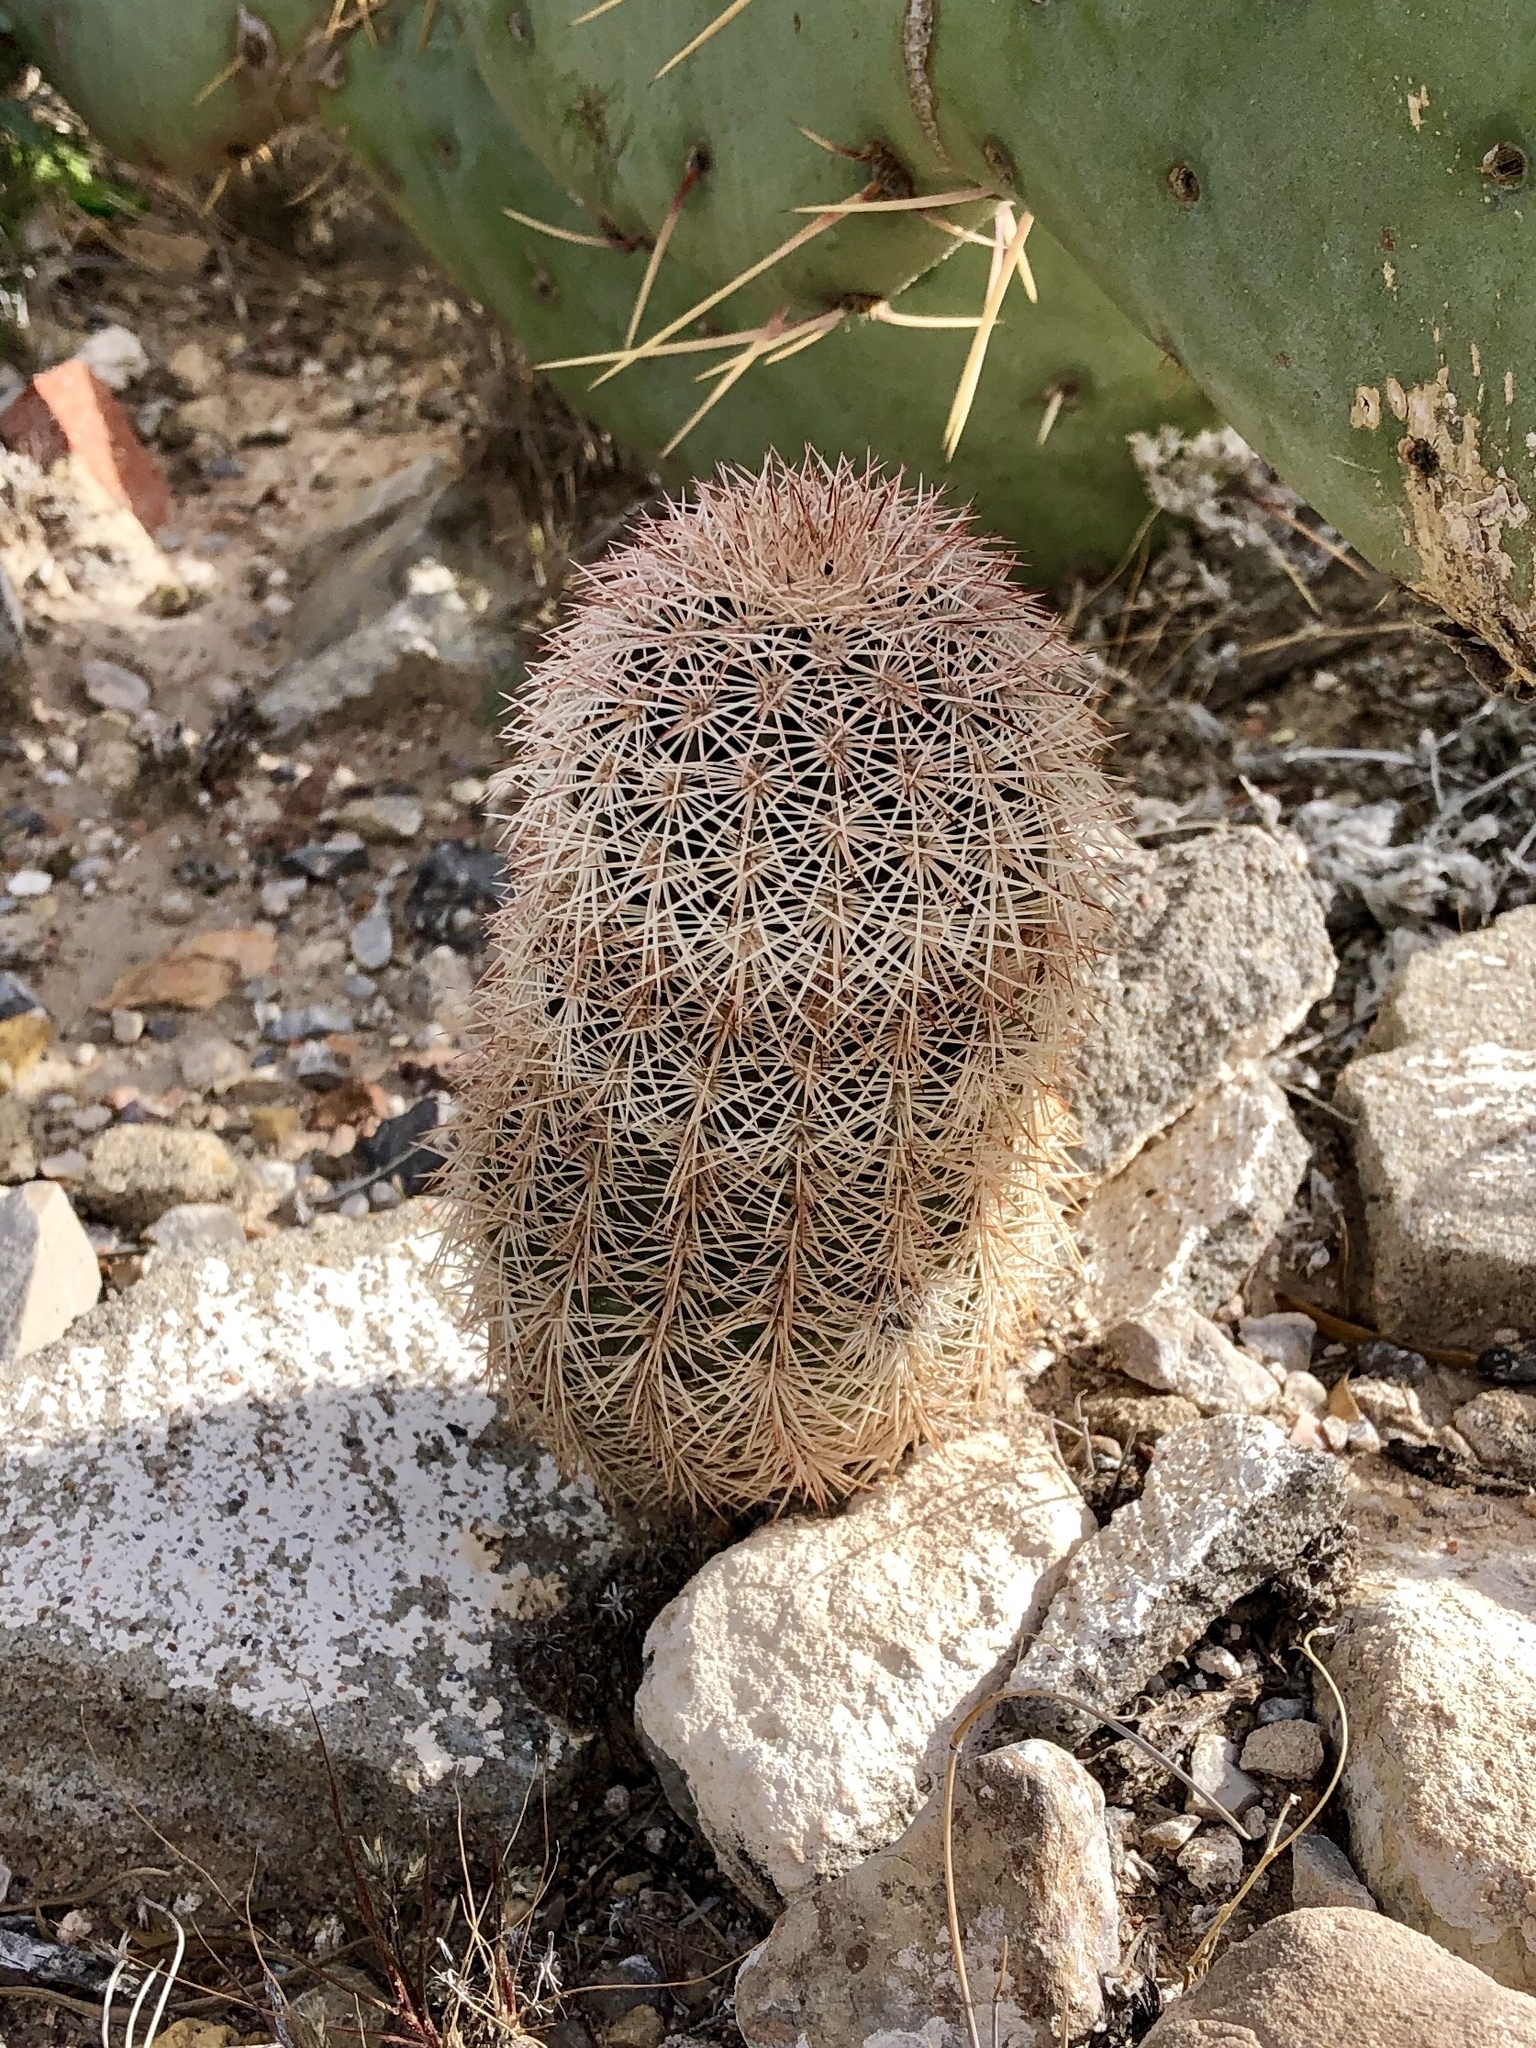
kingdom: Plantae
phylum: Tracheophyta
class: Magnoliopsida
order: Caryophyllales
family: Cactaceae
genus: Echinocereus
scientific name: Echinocereus dasyacanthus
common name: Spiny hedgehog cactus
